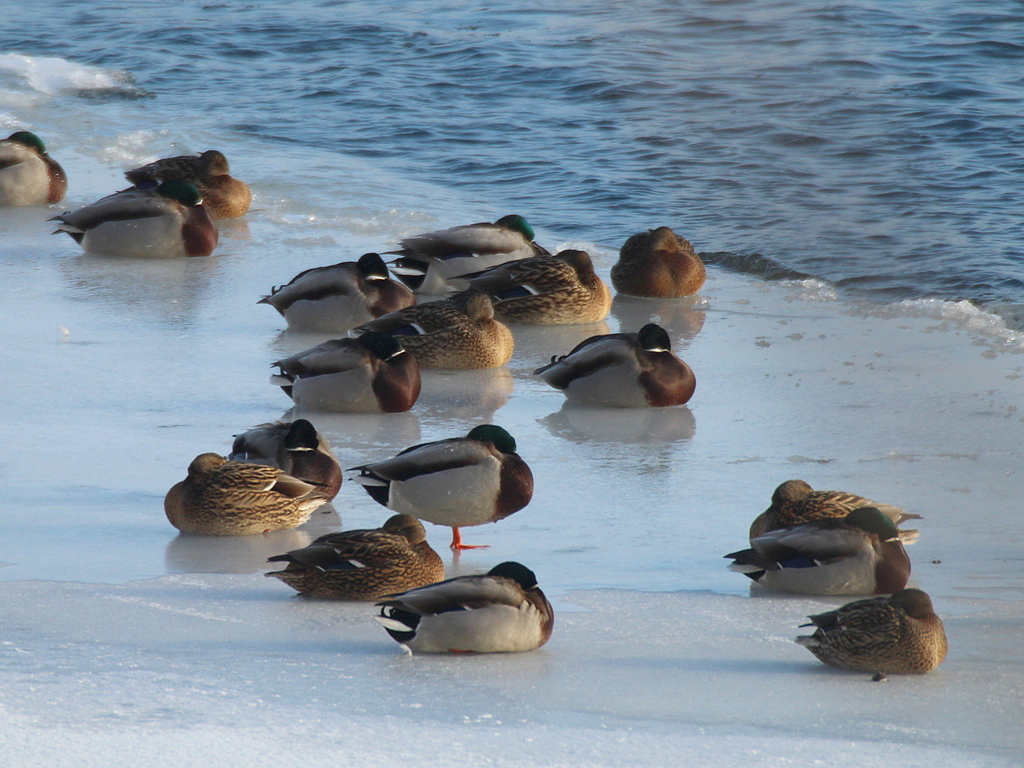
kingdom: Animalia
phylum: Chordata
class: Aves
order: Anseriformes
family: Anatidae
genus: Anas
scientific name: Anas platyrhynchos
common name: Mallard
